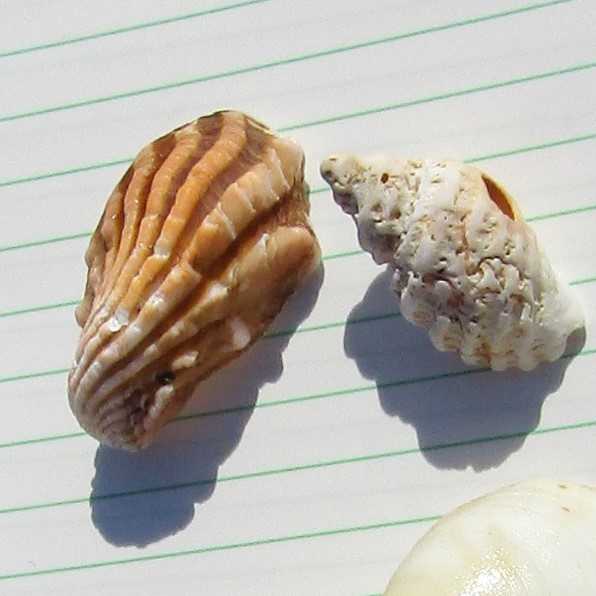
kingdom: Animalia
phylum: Mollusca
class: Bivalvia
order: Carditida
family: Carditidae
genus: Cardita
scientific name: Cardita distorta
